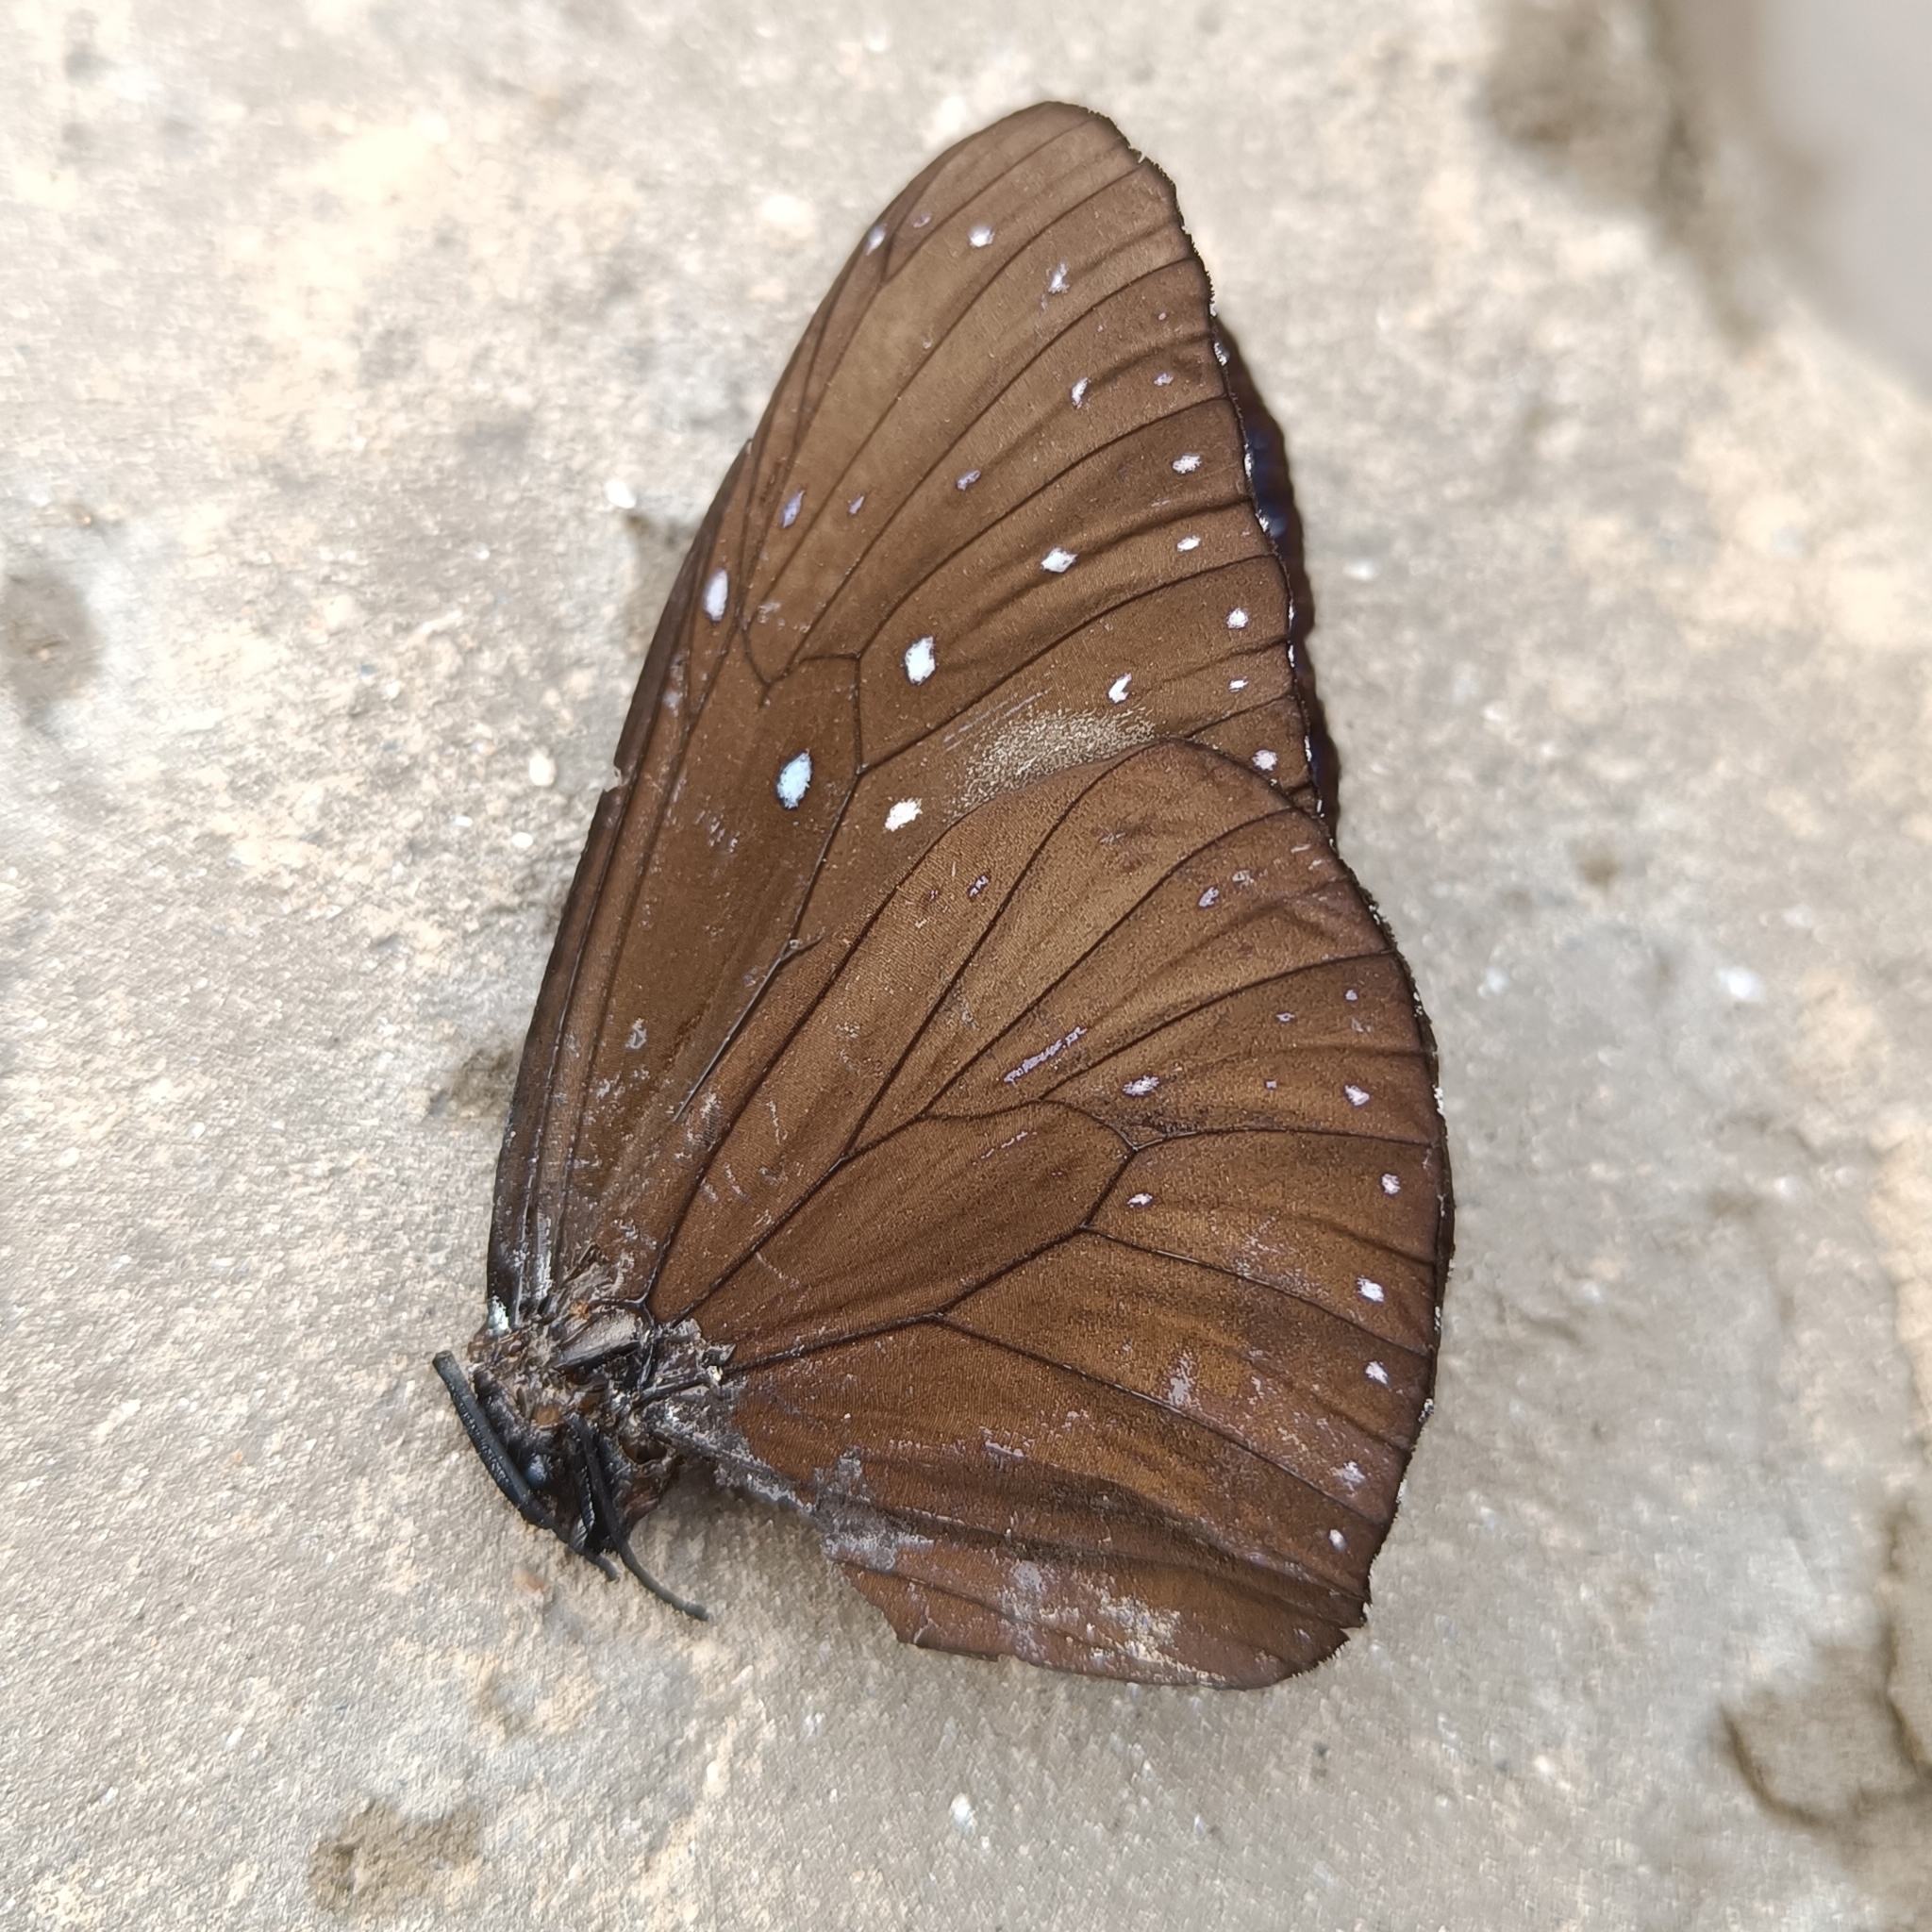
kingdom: Animalia
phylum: Arthropoda
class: Insecta
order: Lepidoptera
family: Nymphalidae
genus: Euploea
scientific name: Euploea mulciber
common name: Striped blue crow butterfly
